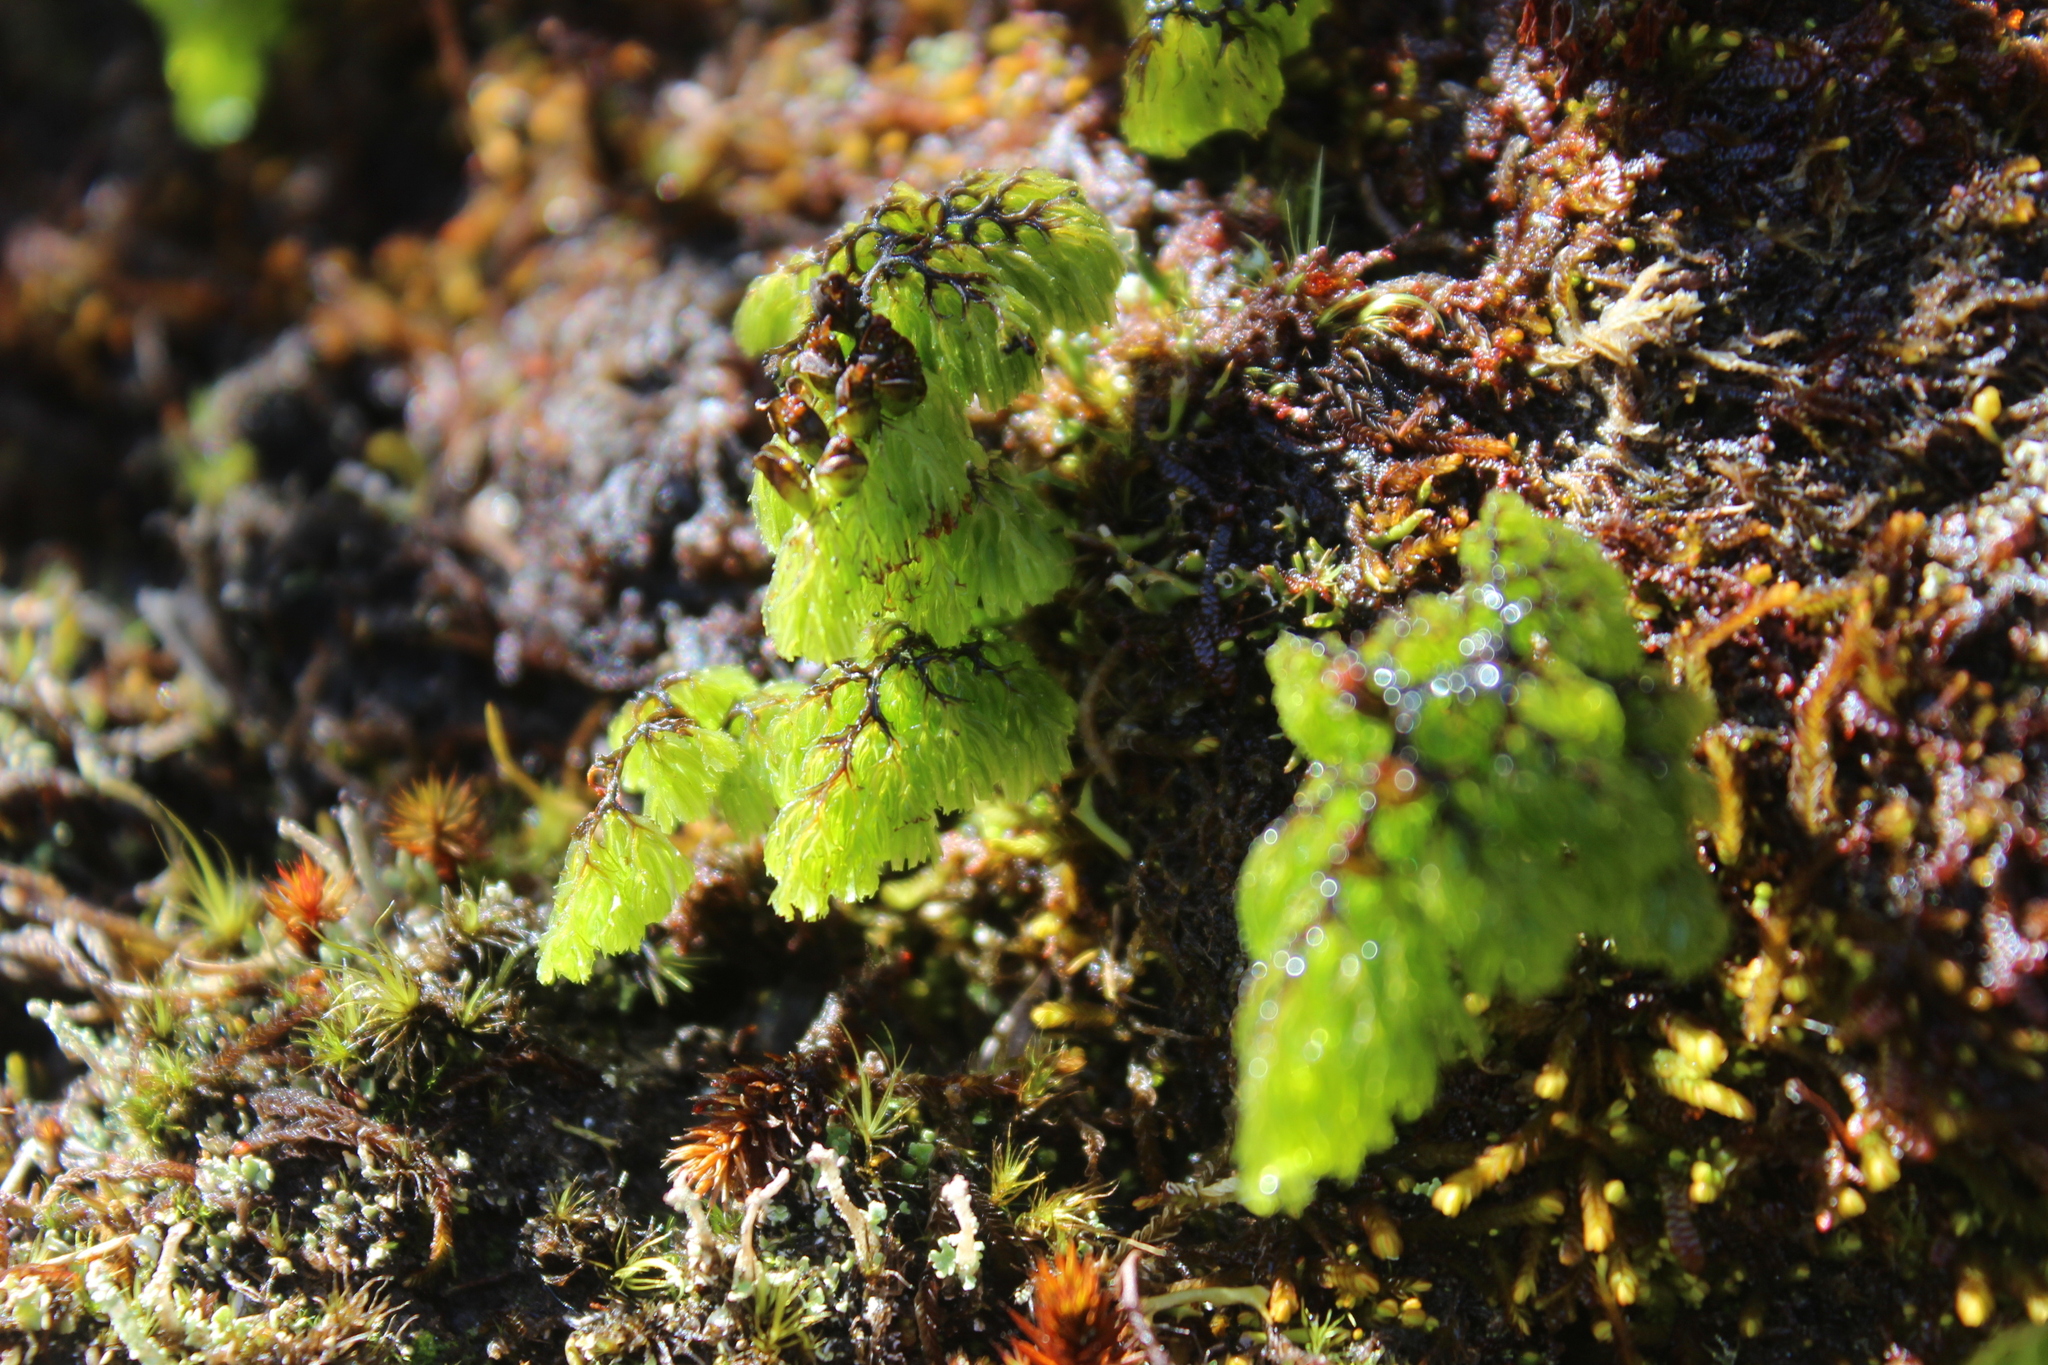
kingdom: Plantae
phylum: Tracheophyta
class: Polypodiopsida
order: Hymenophyllales
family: Hymenophyllaceae
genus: Hymenophyllum
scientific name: Hymenophyllum multifidum
